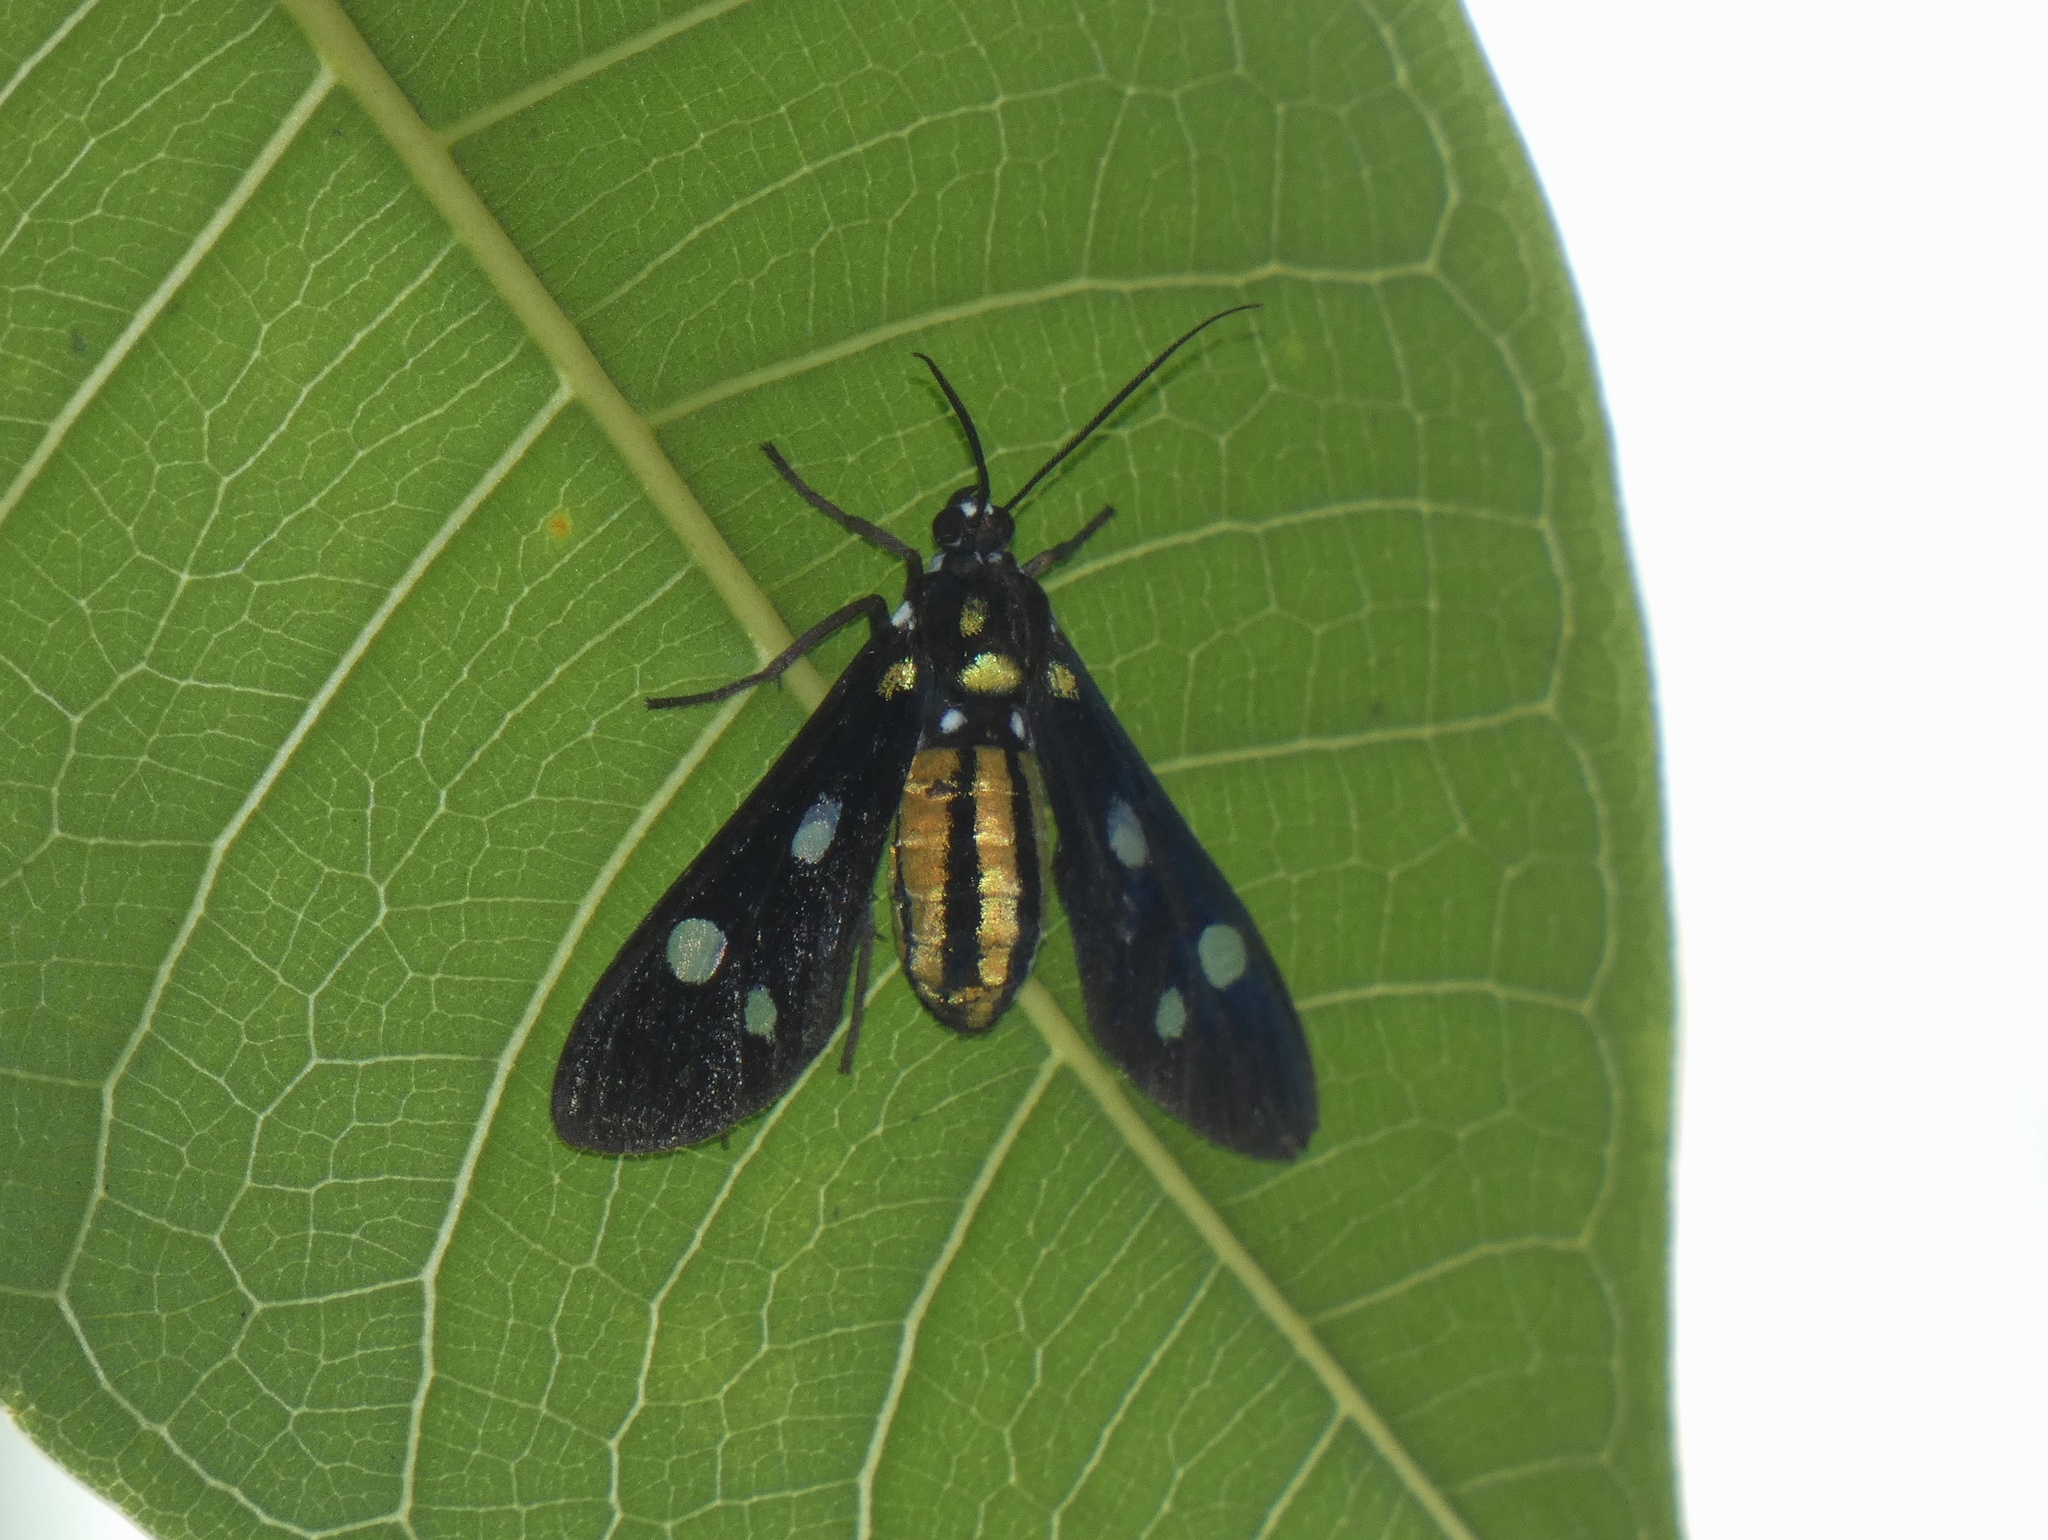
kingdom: Animalia
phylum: Arthropoda
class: Insecta
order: Lepidoptera
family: Erebidae
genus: Calonotos
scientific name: Calonotos tiburtus
